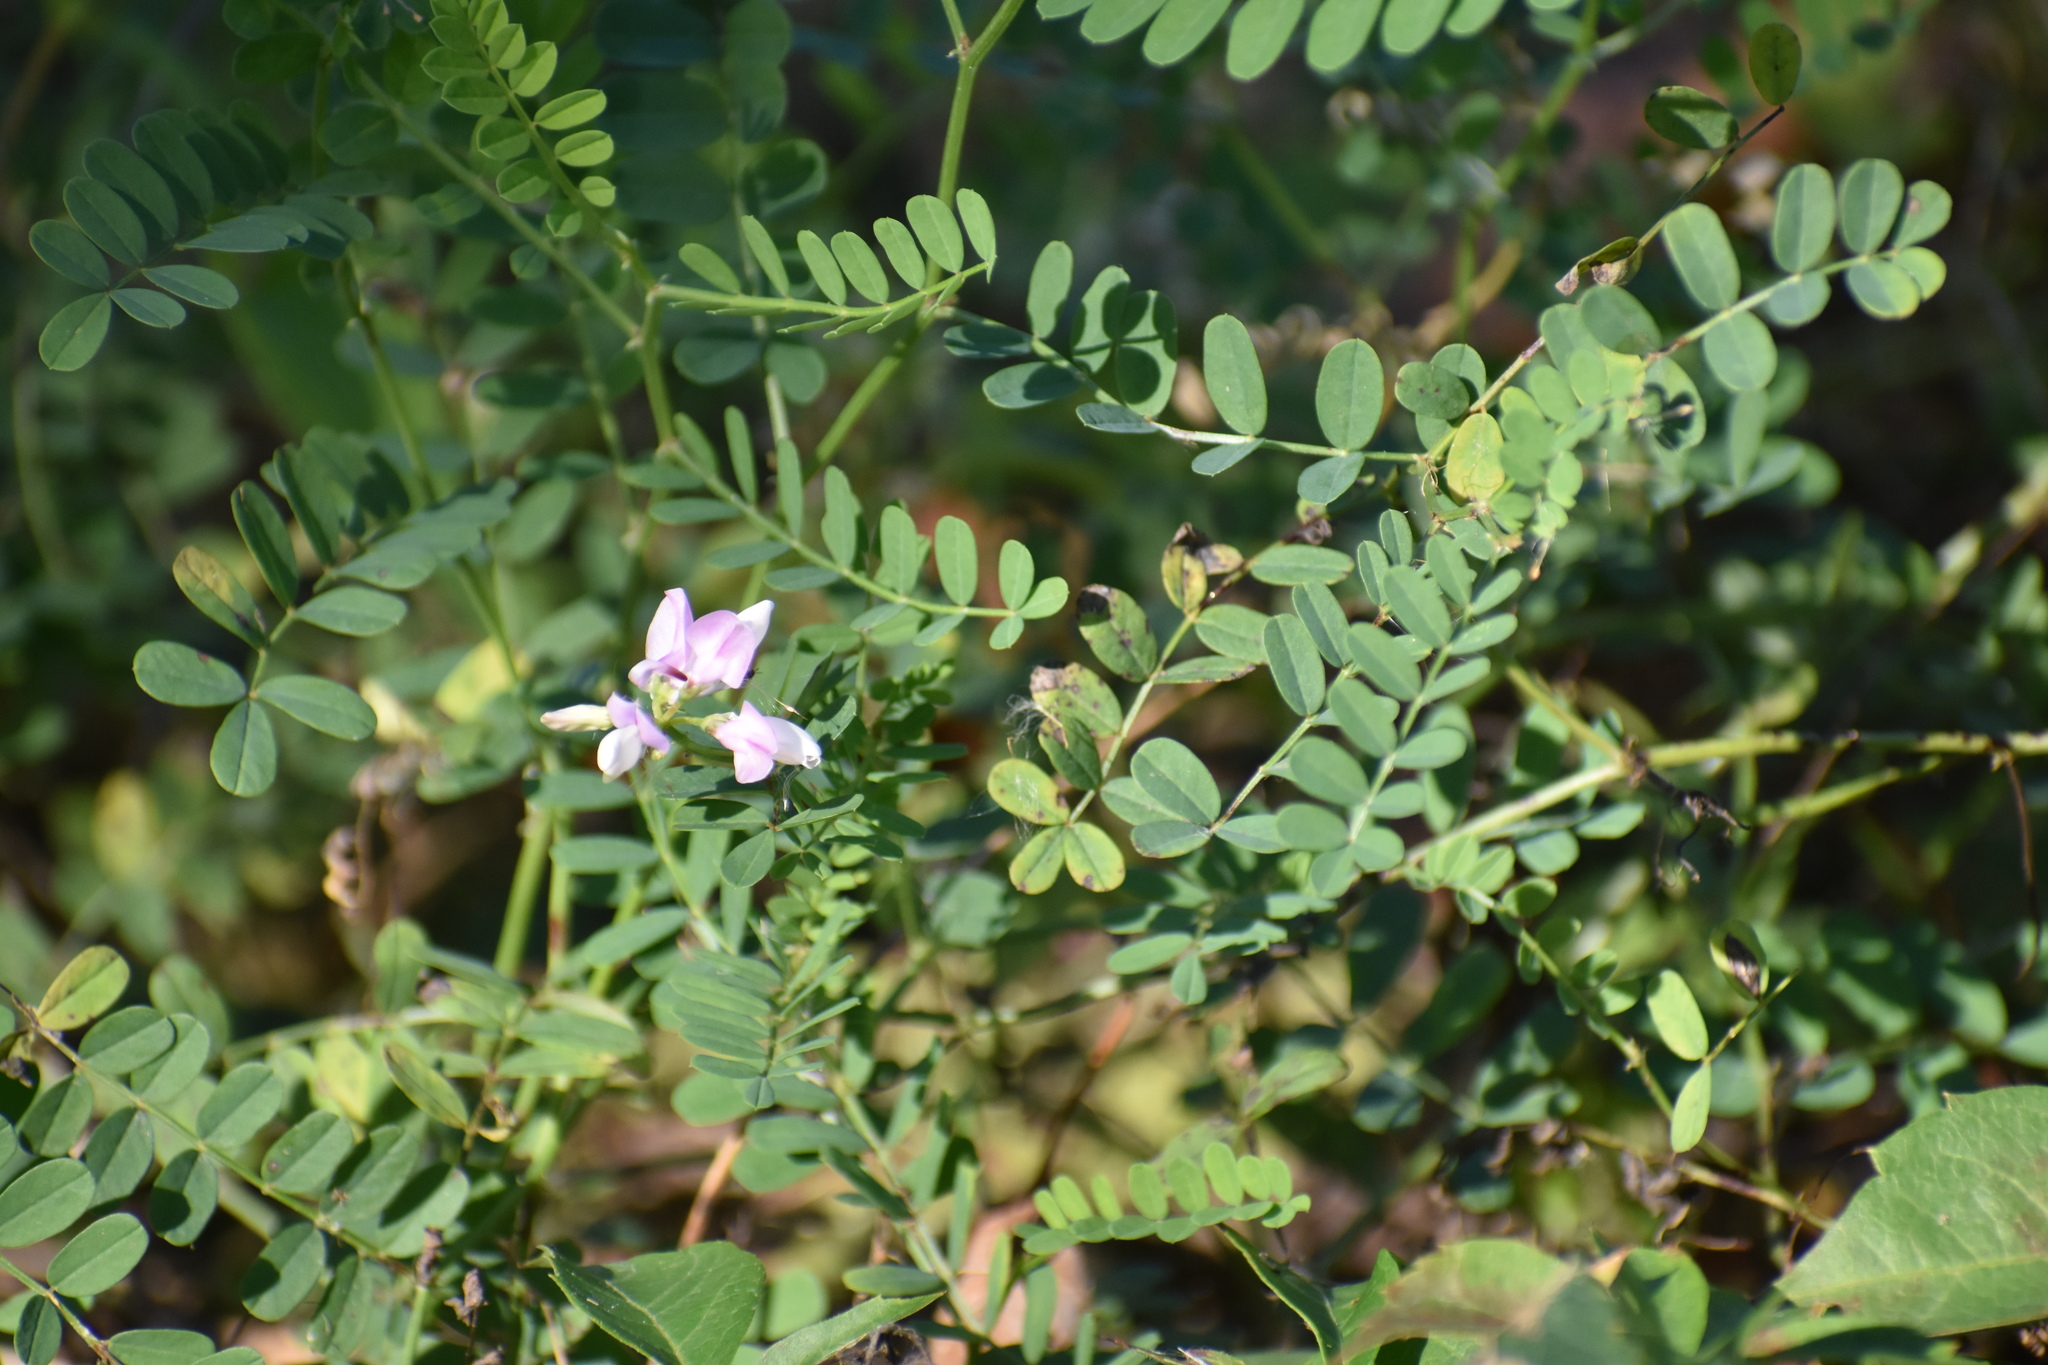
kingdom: Plantae
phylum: Tracheophyta
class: Magnoliopsida
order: Fabales
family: Fabaceae
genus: Coronilla
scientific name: Coronilla varia
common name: Crownvetch
